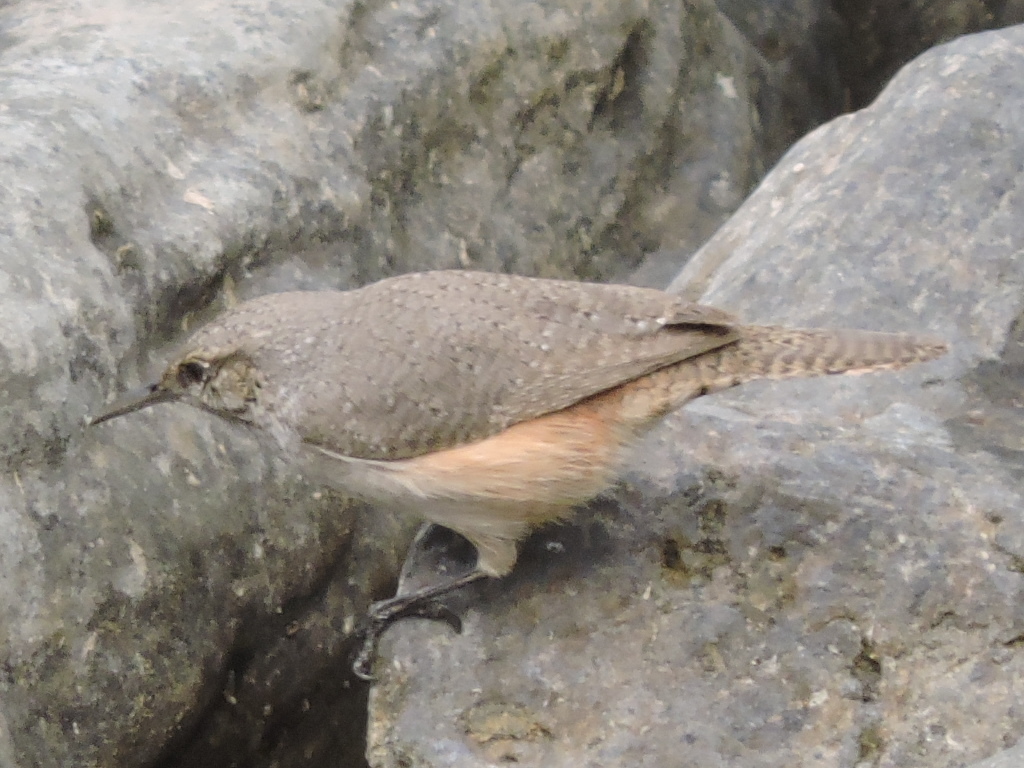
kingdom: Animalia
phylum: Chordata
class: Aves
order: Passeriformes
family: Troglodytidae
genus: Salpinctes
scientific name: Salpinctes obsoletus
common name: Rock wren
